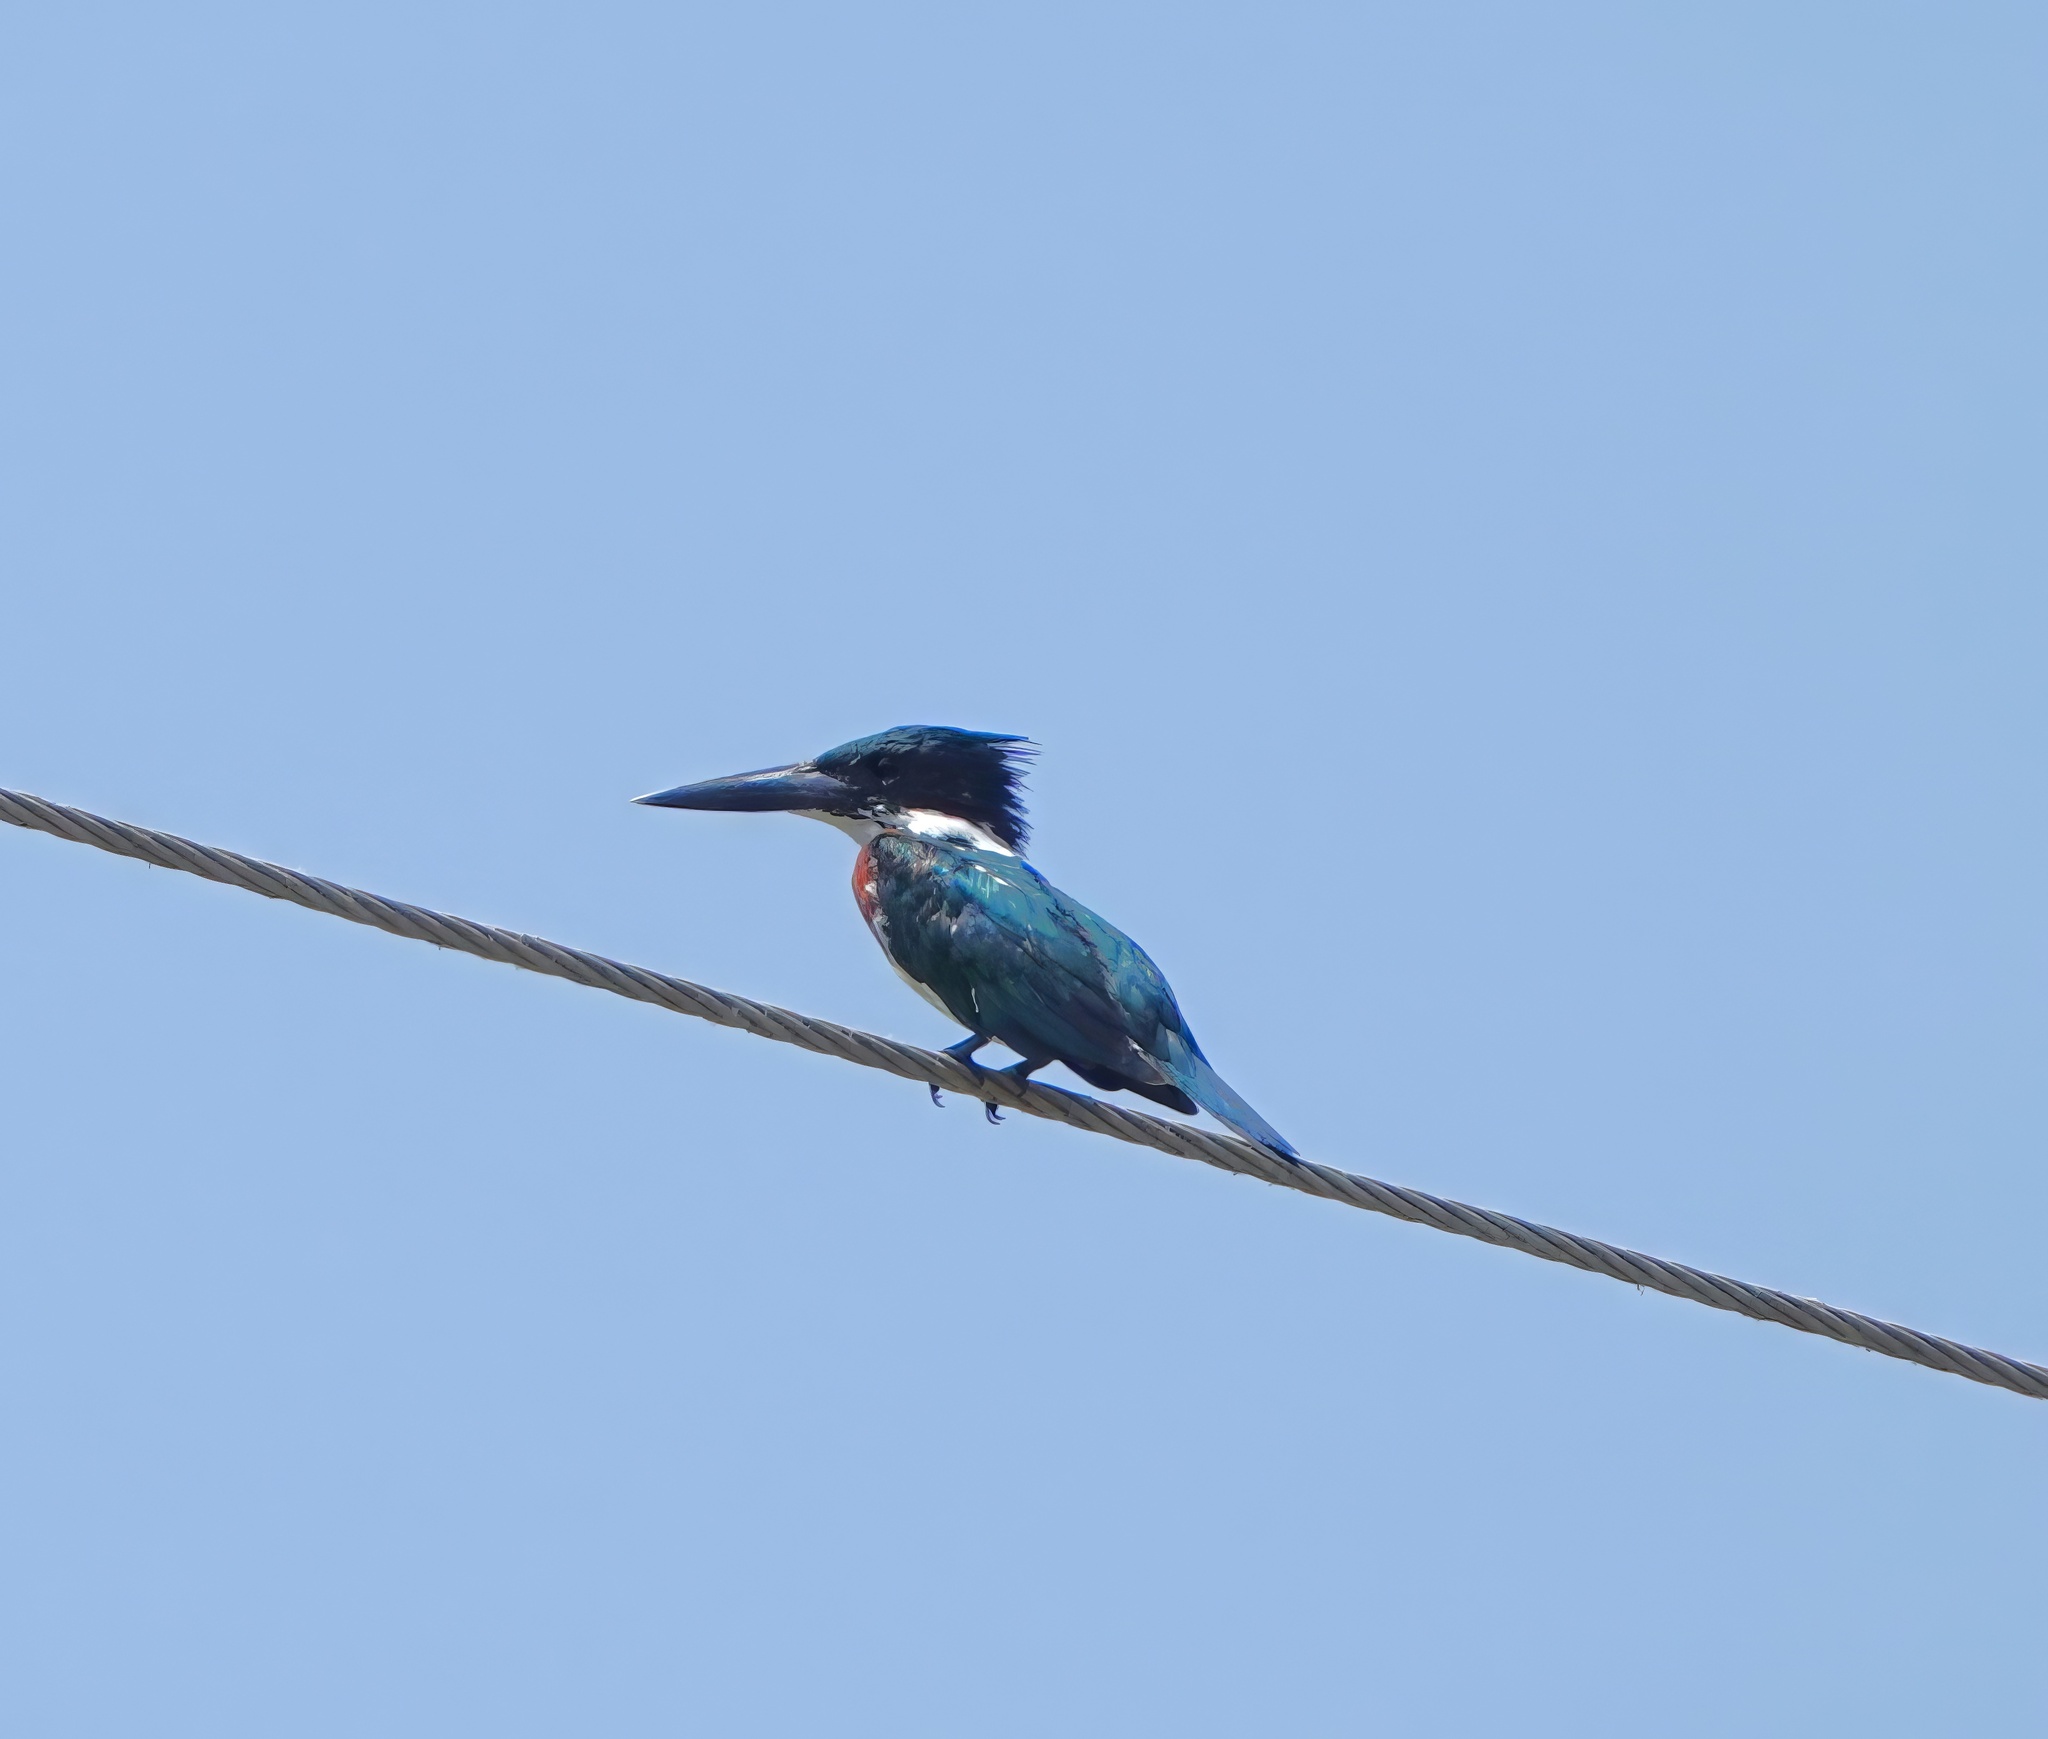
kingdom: Animalia
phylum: Chordata
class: Aves
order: Coraciiformes
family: Alcedinidae
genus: Chloroceryle
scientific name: Chloroceryle amazona
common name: Amazon kingfisher
